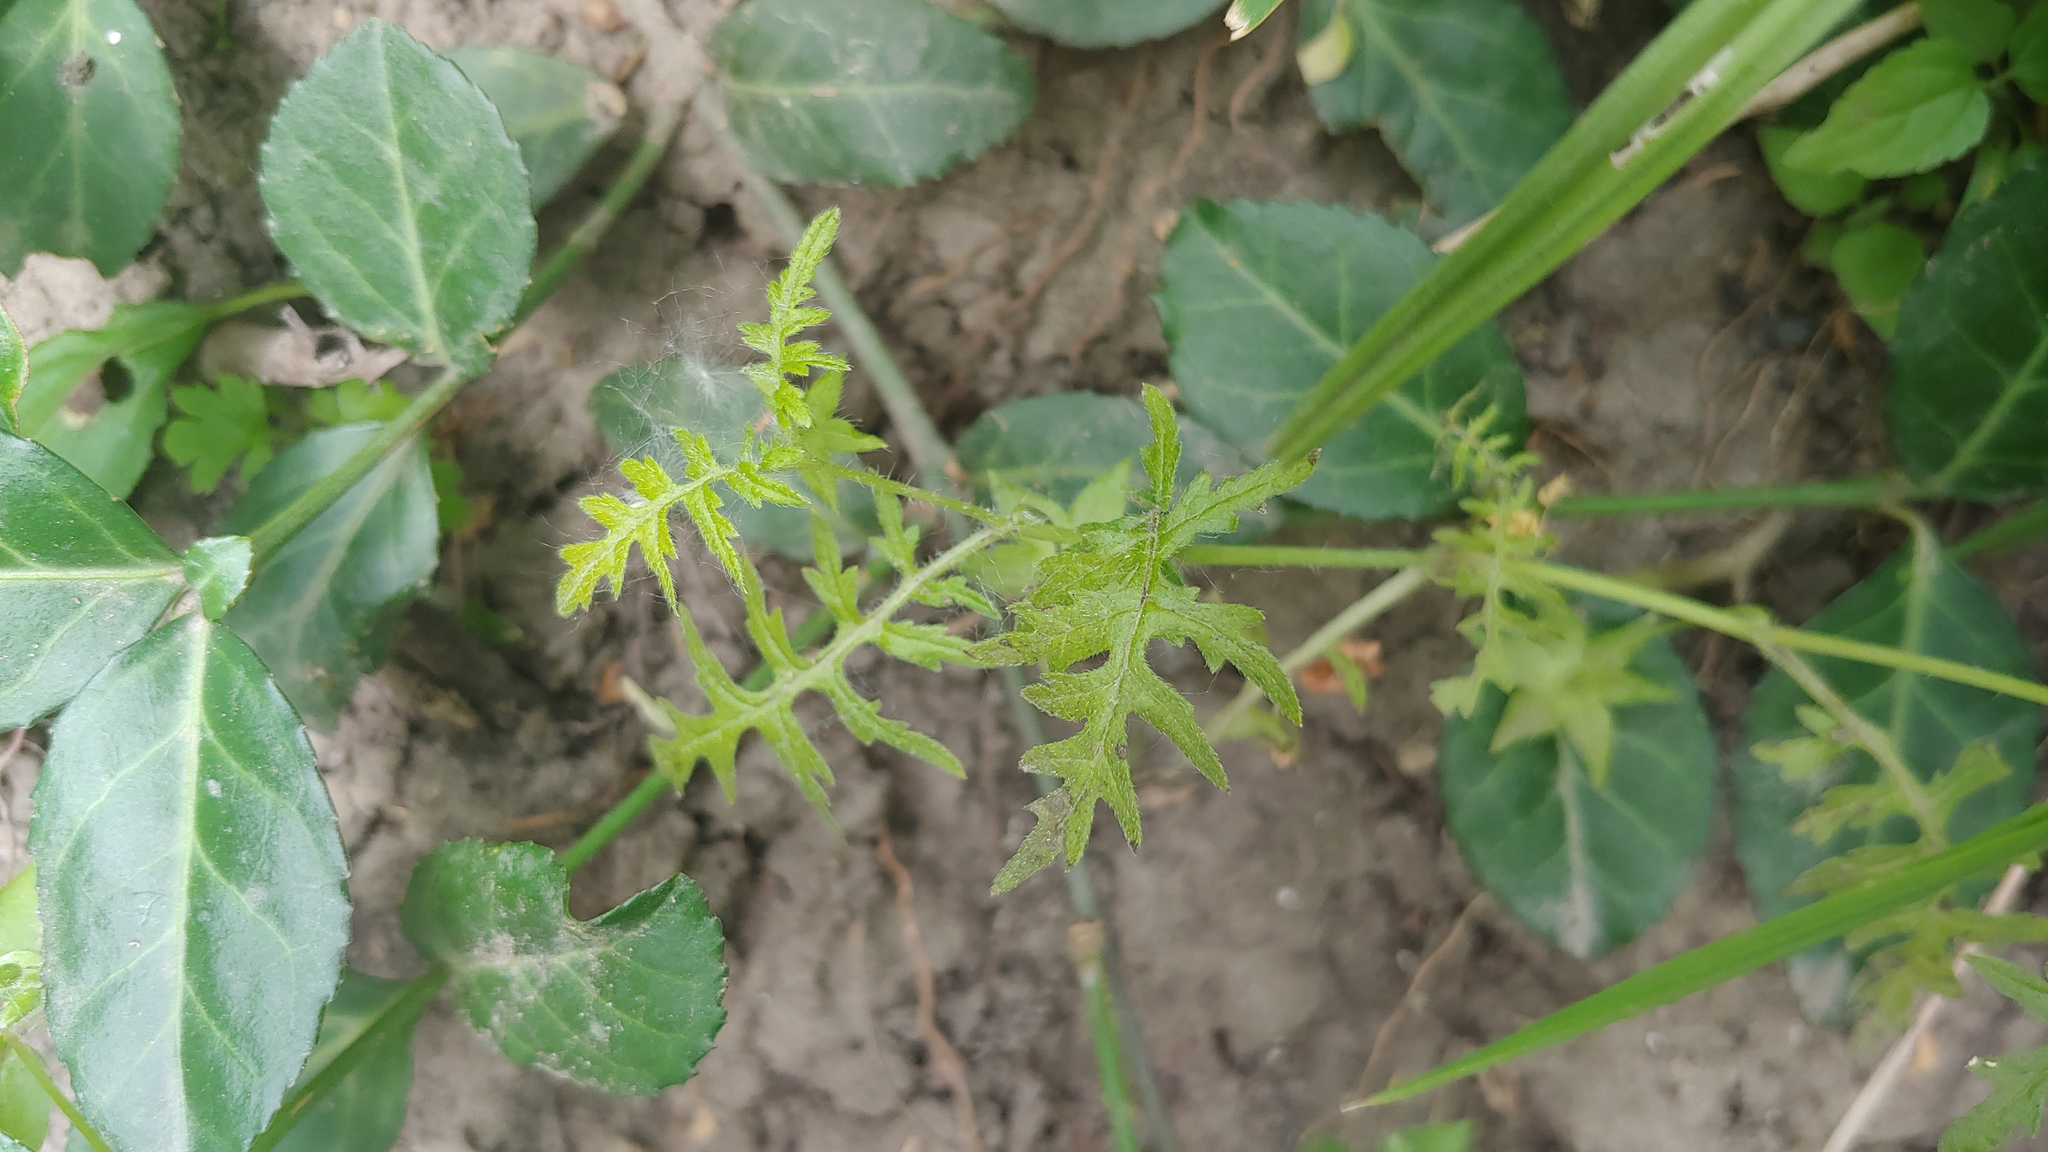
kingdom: Plantae
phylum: Tracheophyta
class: Magnoliopsida
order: Boraginales
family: Hydrophyllaceae
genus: Ellisia
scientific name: Ellisia nyctelea
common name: Aunt lucy
